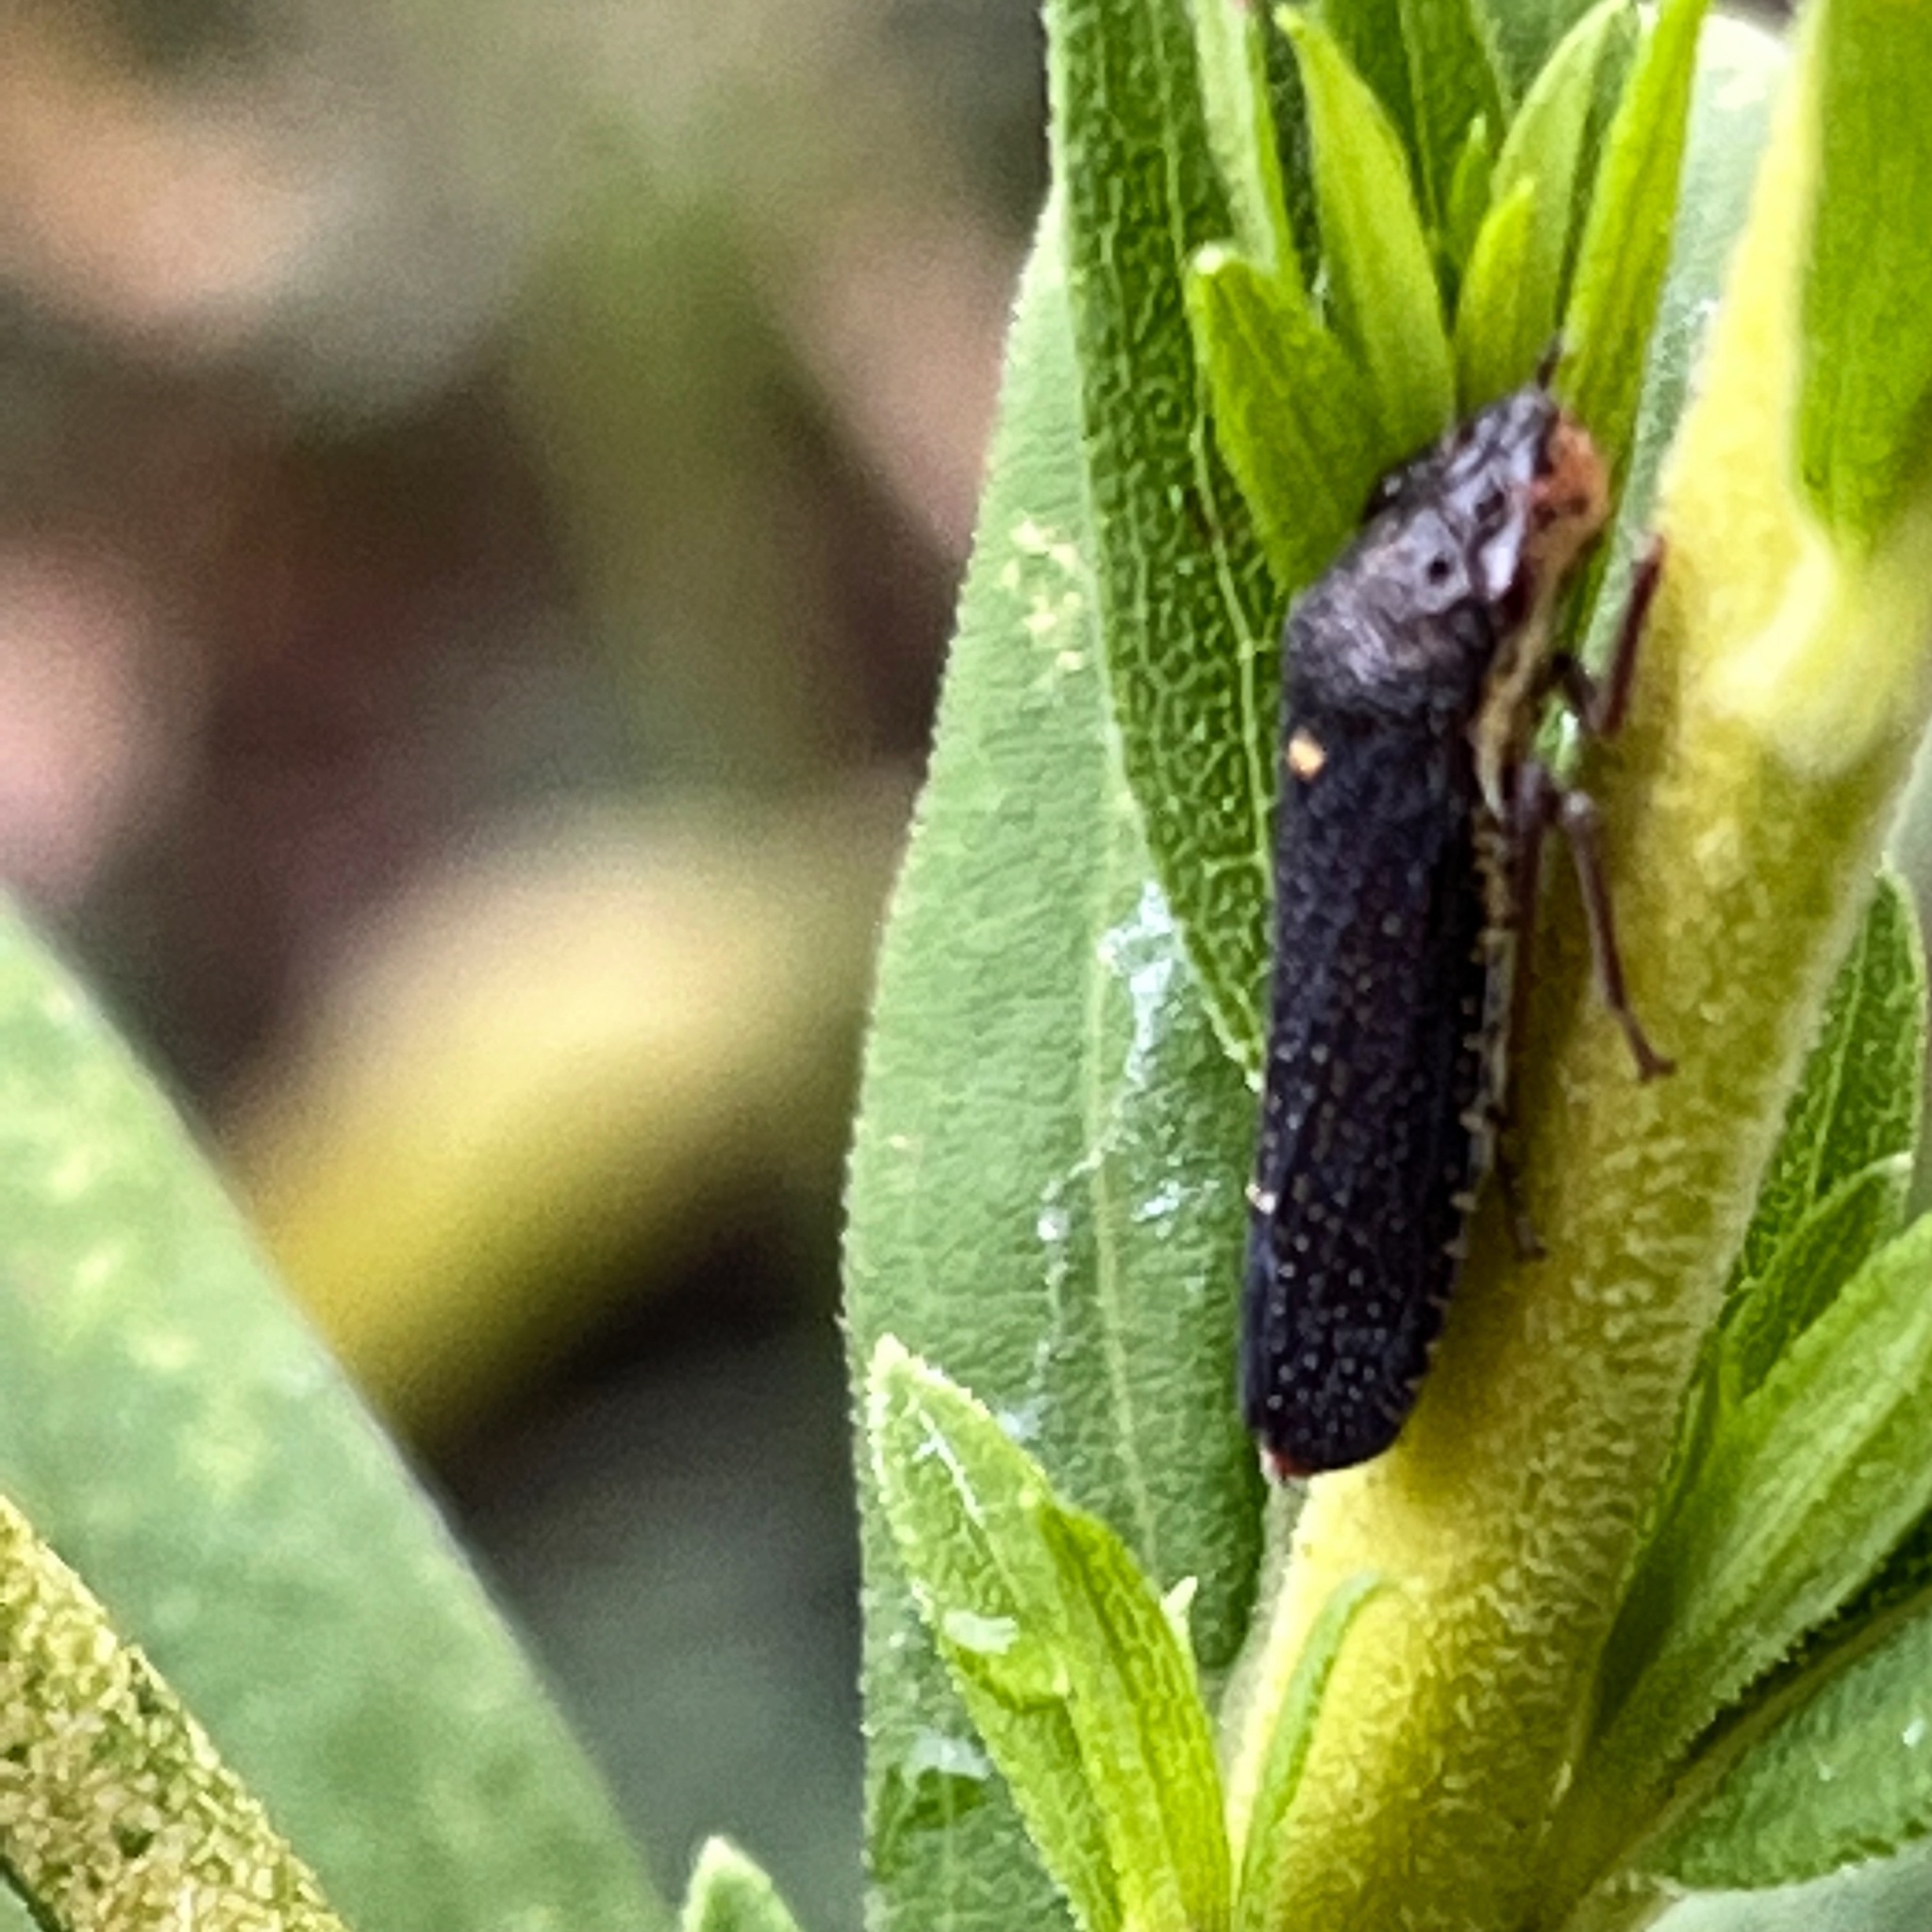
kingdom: Animalia
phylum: Arthropoda
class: Insecta
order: Hemiptera
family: Cicadellidae
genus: Paraulacizes
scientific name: Paraulacizes irrorata
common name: Speckled sharpshooter
